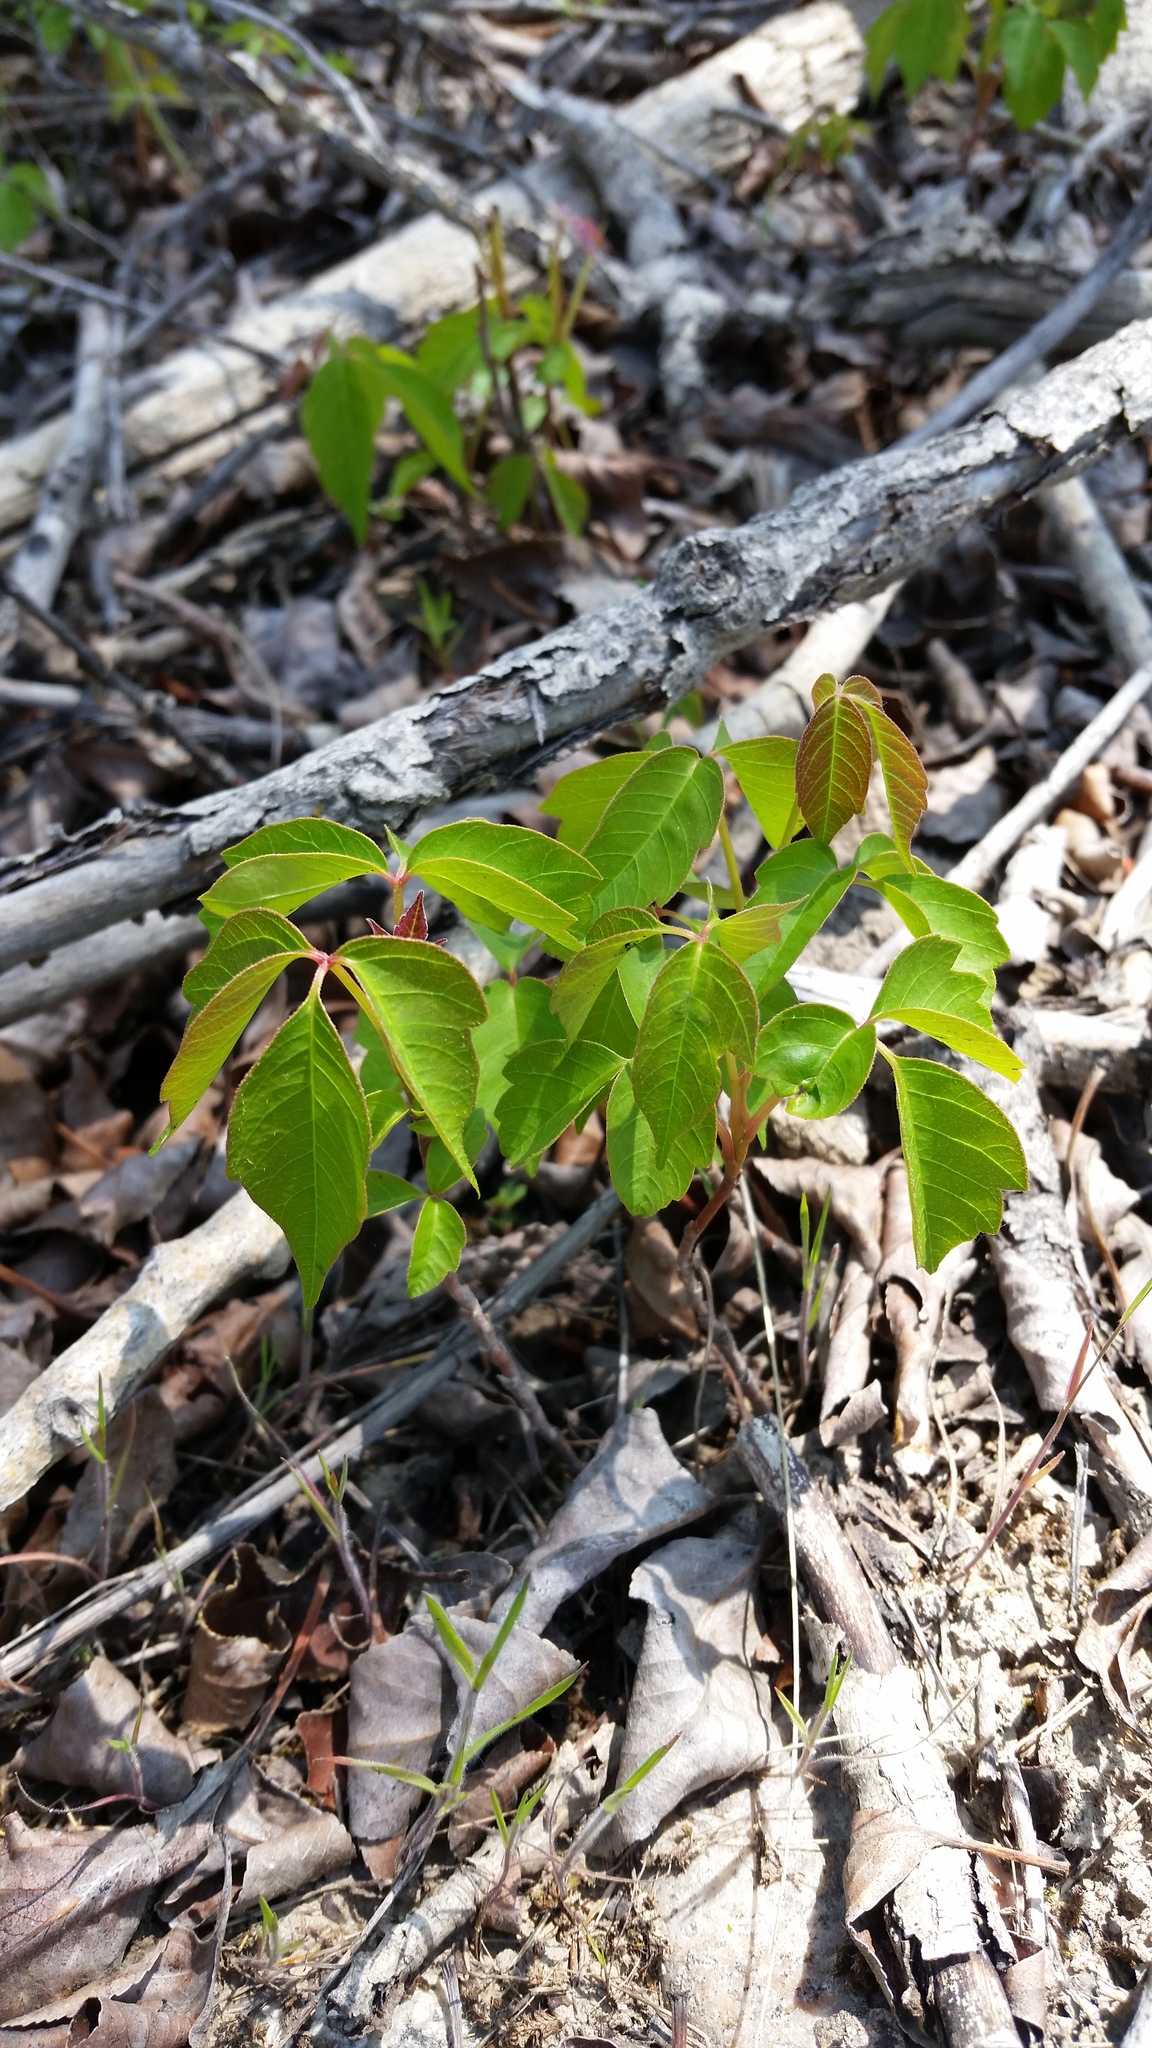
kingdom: Plantae
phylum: Tracheophyta
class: Magnoliopsida
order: Sapindales
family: Anacardiaceae
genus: Toxicodendron
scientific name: Toxicodendron rydbergii
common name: Rydberg's poison-ivy
